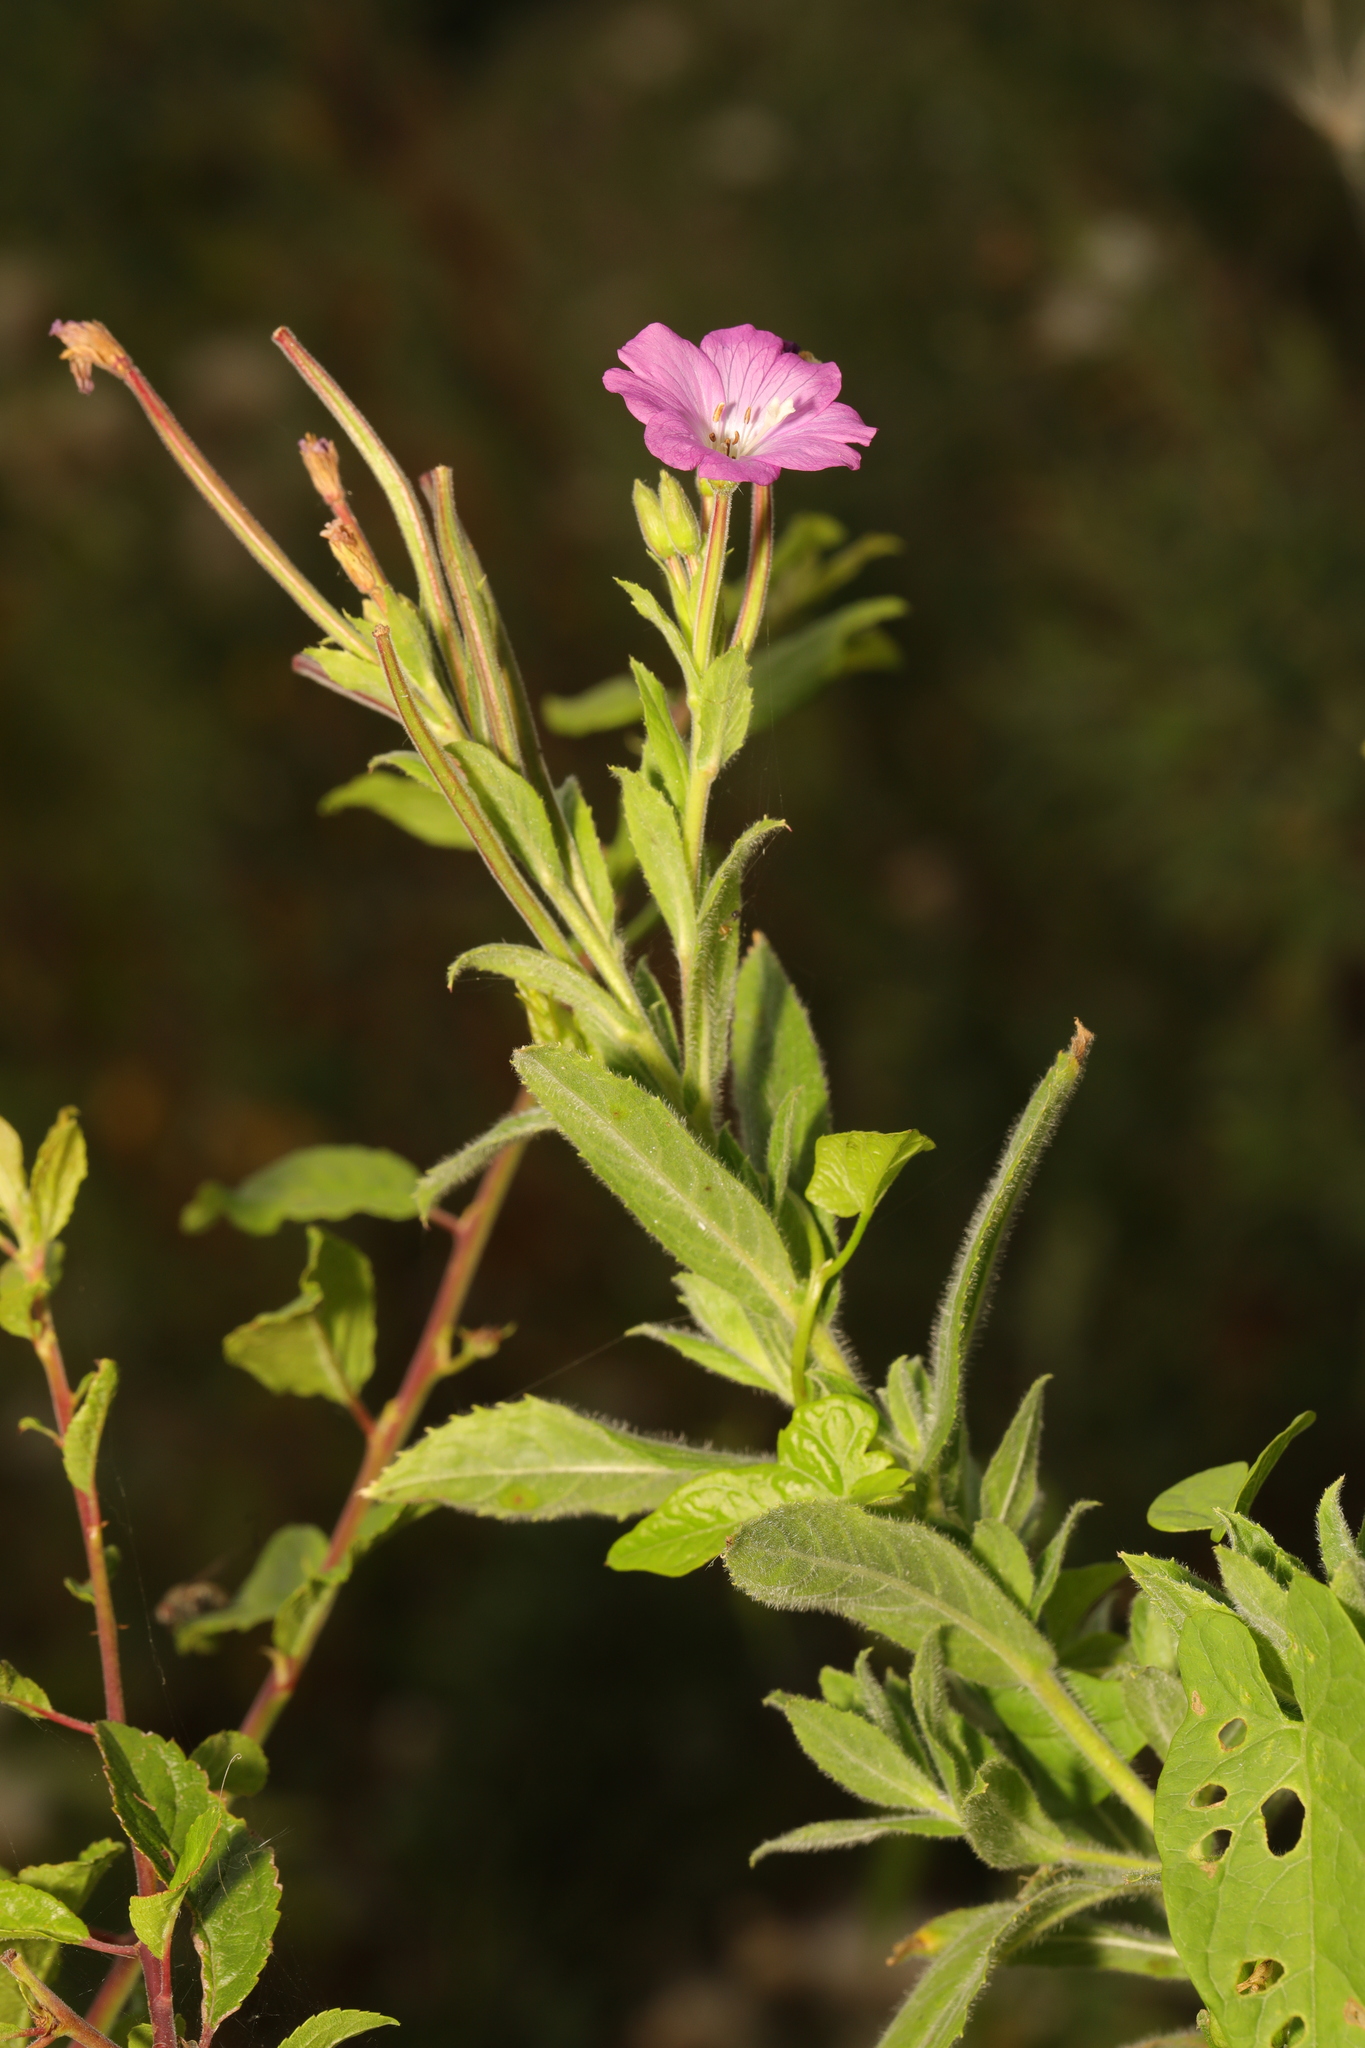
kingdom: Plantae
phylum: Tracheophyta
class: Magnoliopsida
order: Myrtales
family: Onagraceae
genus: Epilobium
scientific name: Epilobium hirsutum
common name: Great willowherb
